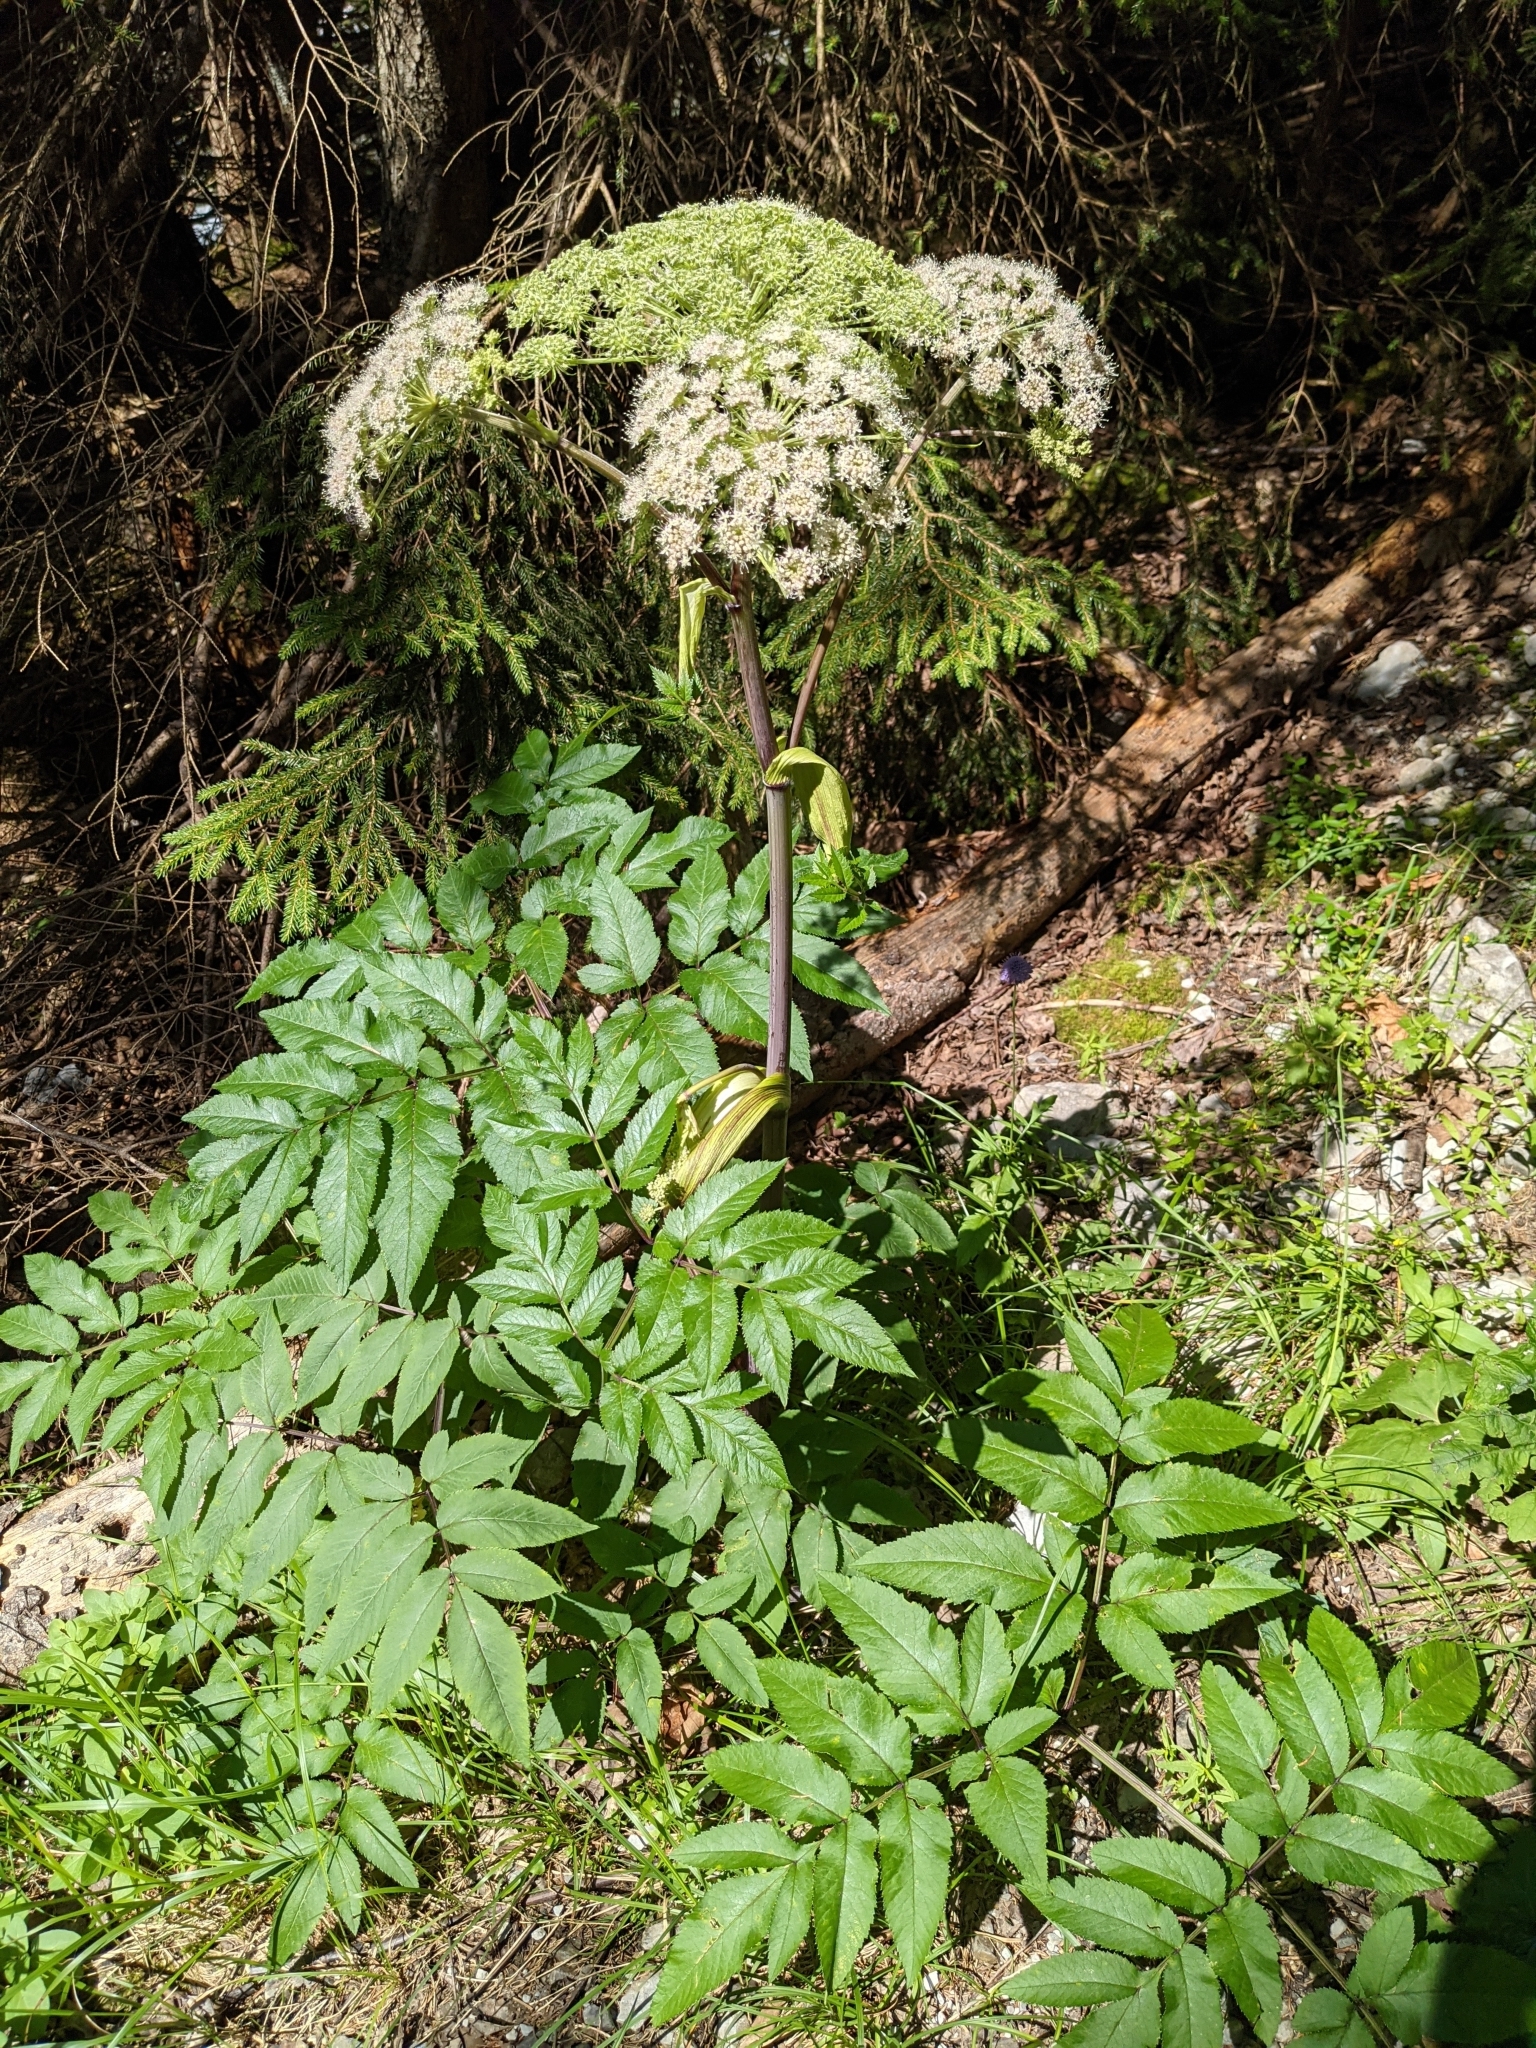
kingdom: Plantae
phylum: Tracheophyta
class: Magnoliopsida
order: Apiales
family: Apiaceae
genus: Angelica
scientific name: Angelica sylvestris
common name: Wild angelica
